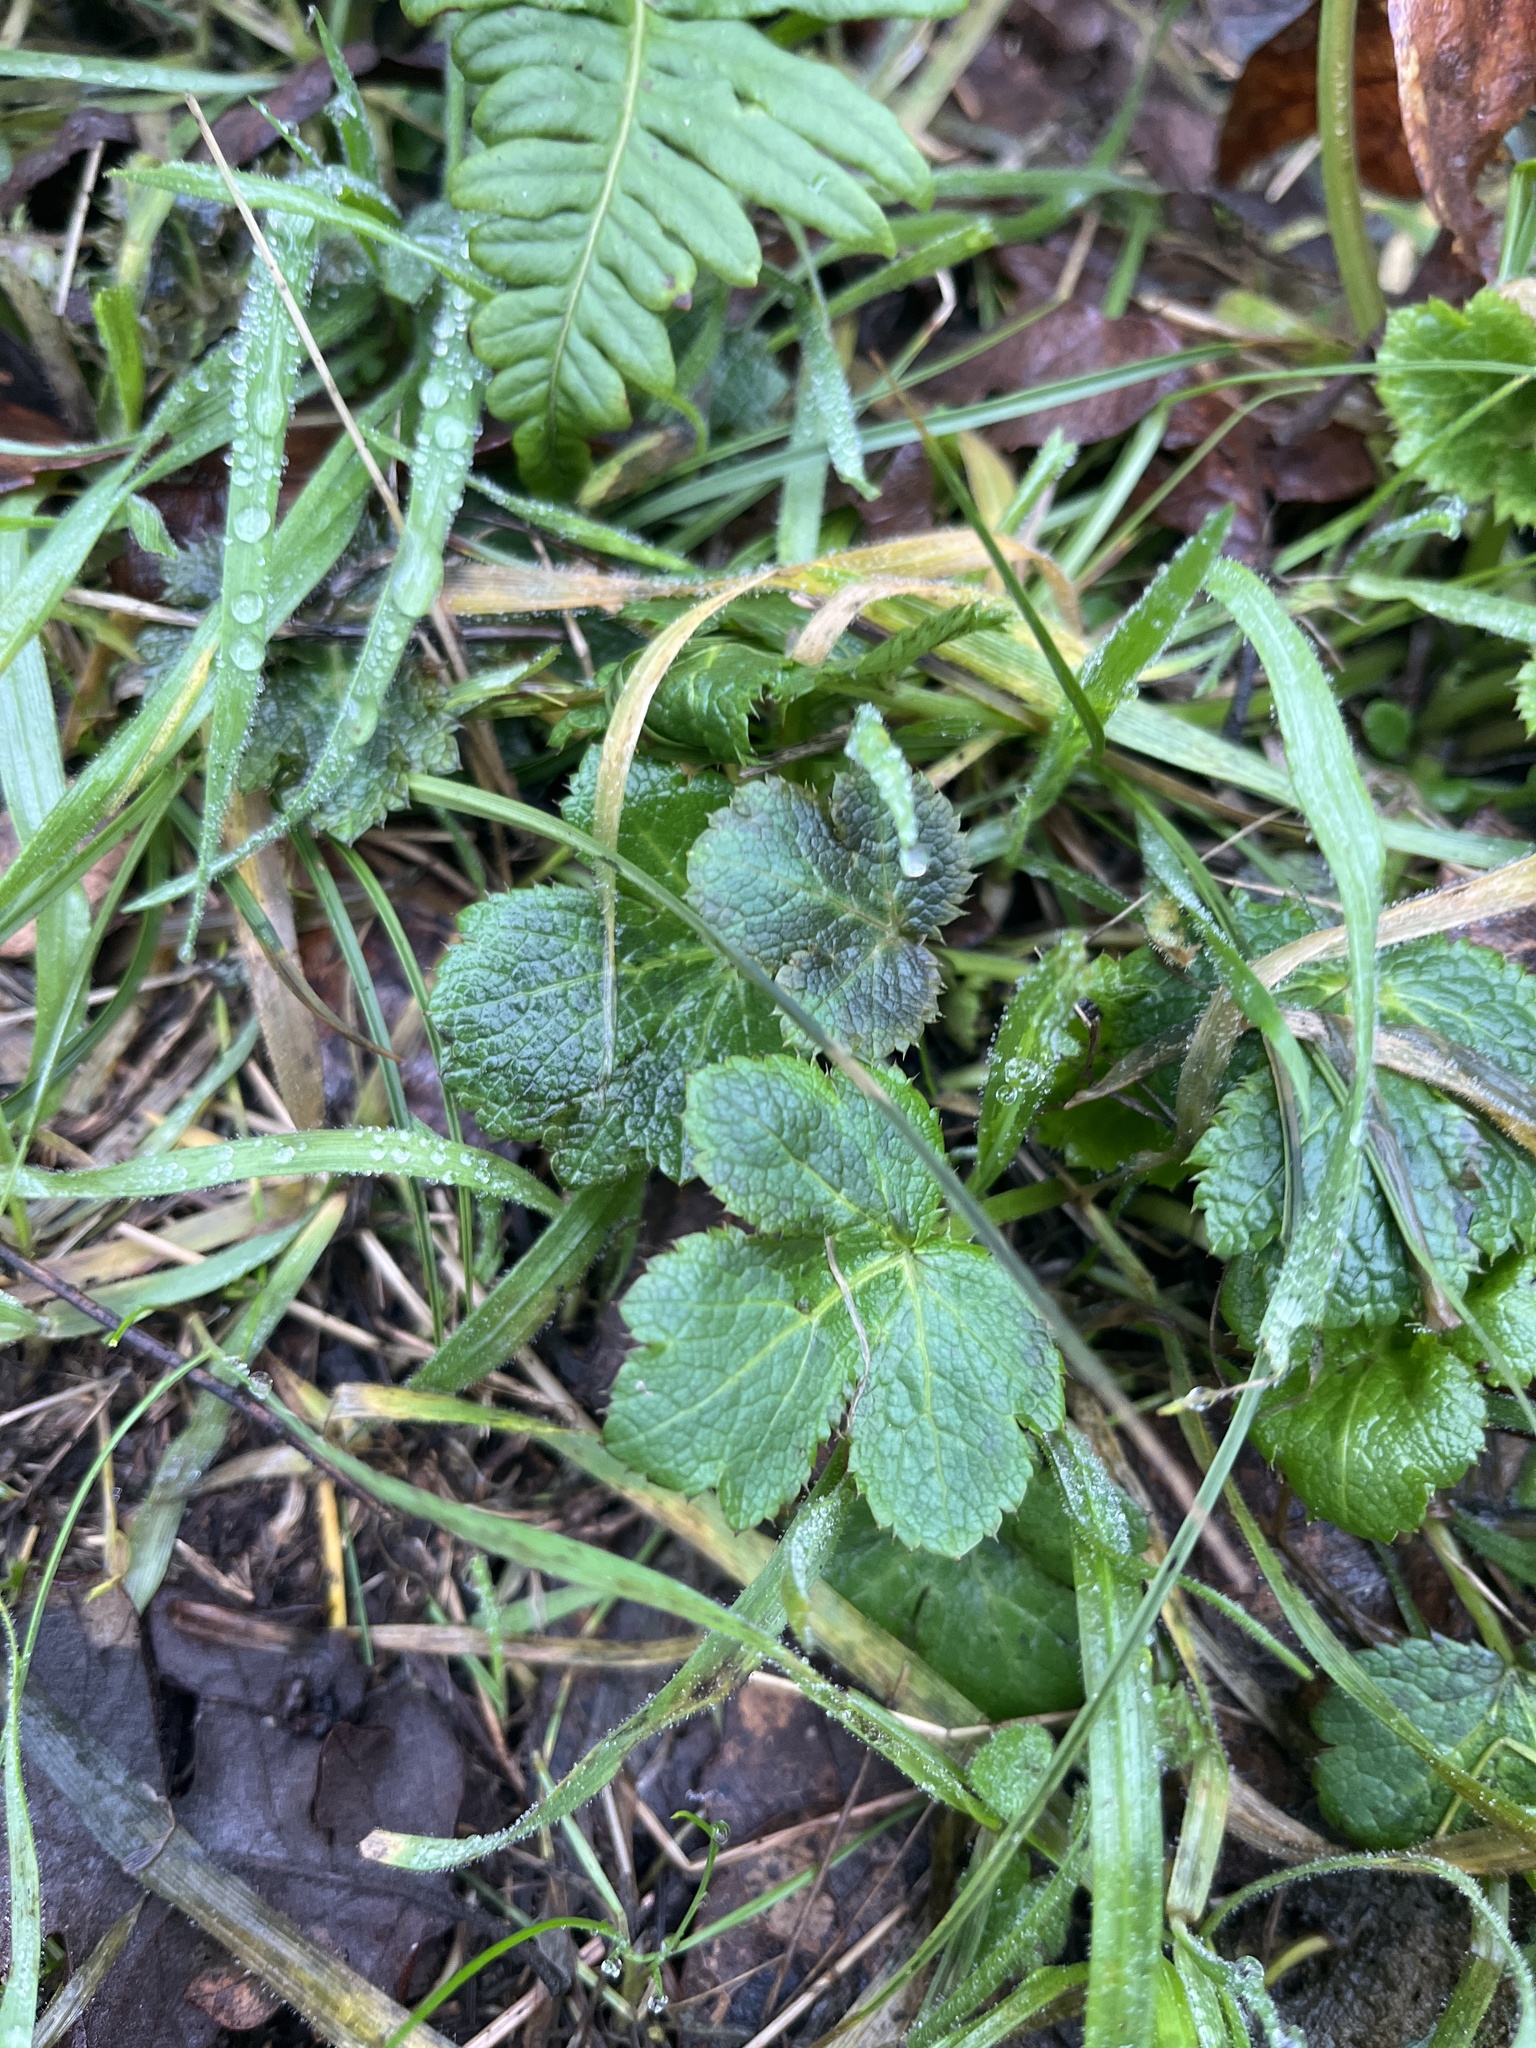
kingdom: Plantae
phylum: Tracheophyta
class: Magnoliopsida
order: Apiales
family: Apiaceae
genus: Sanicula
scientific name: Sanicula crassicaulis
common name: Western snakeroot
